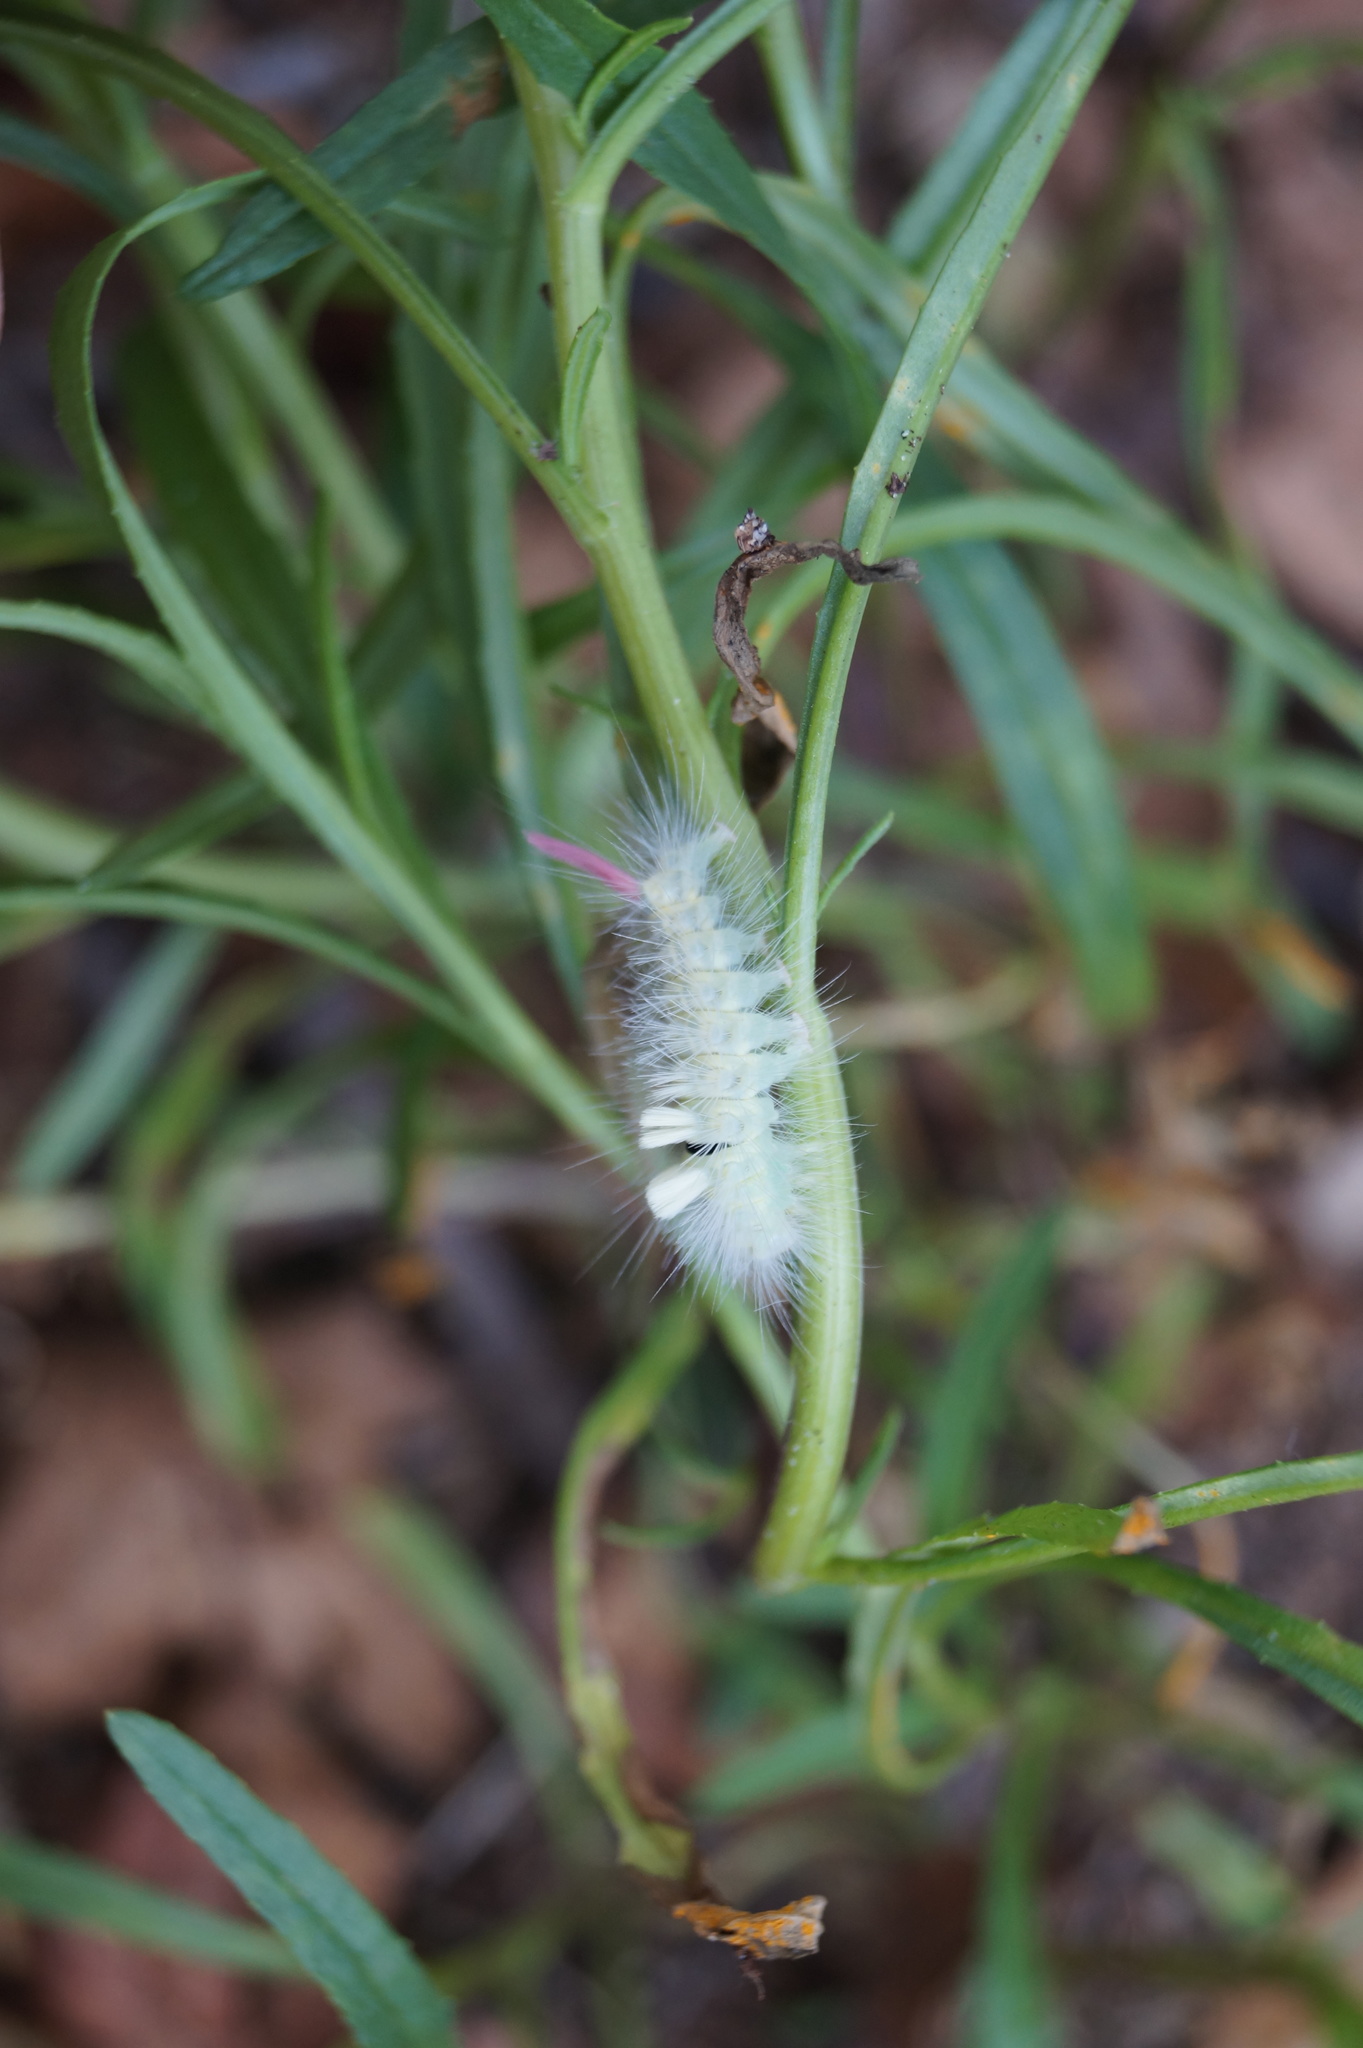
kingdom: Animalia
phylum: Arthropoda
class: Insecta
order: Lepidoptera
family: Erebidae
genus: Calliteara
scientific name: Calliteara pudibunda
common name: Pale tussock
